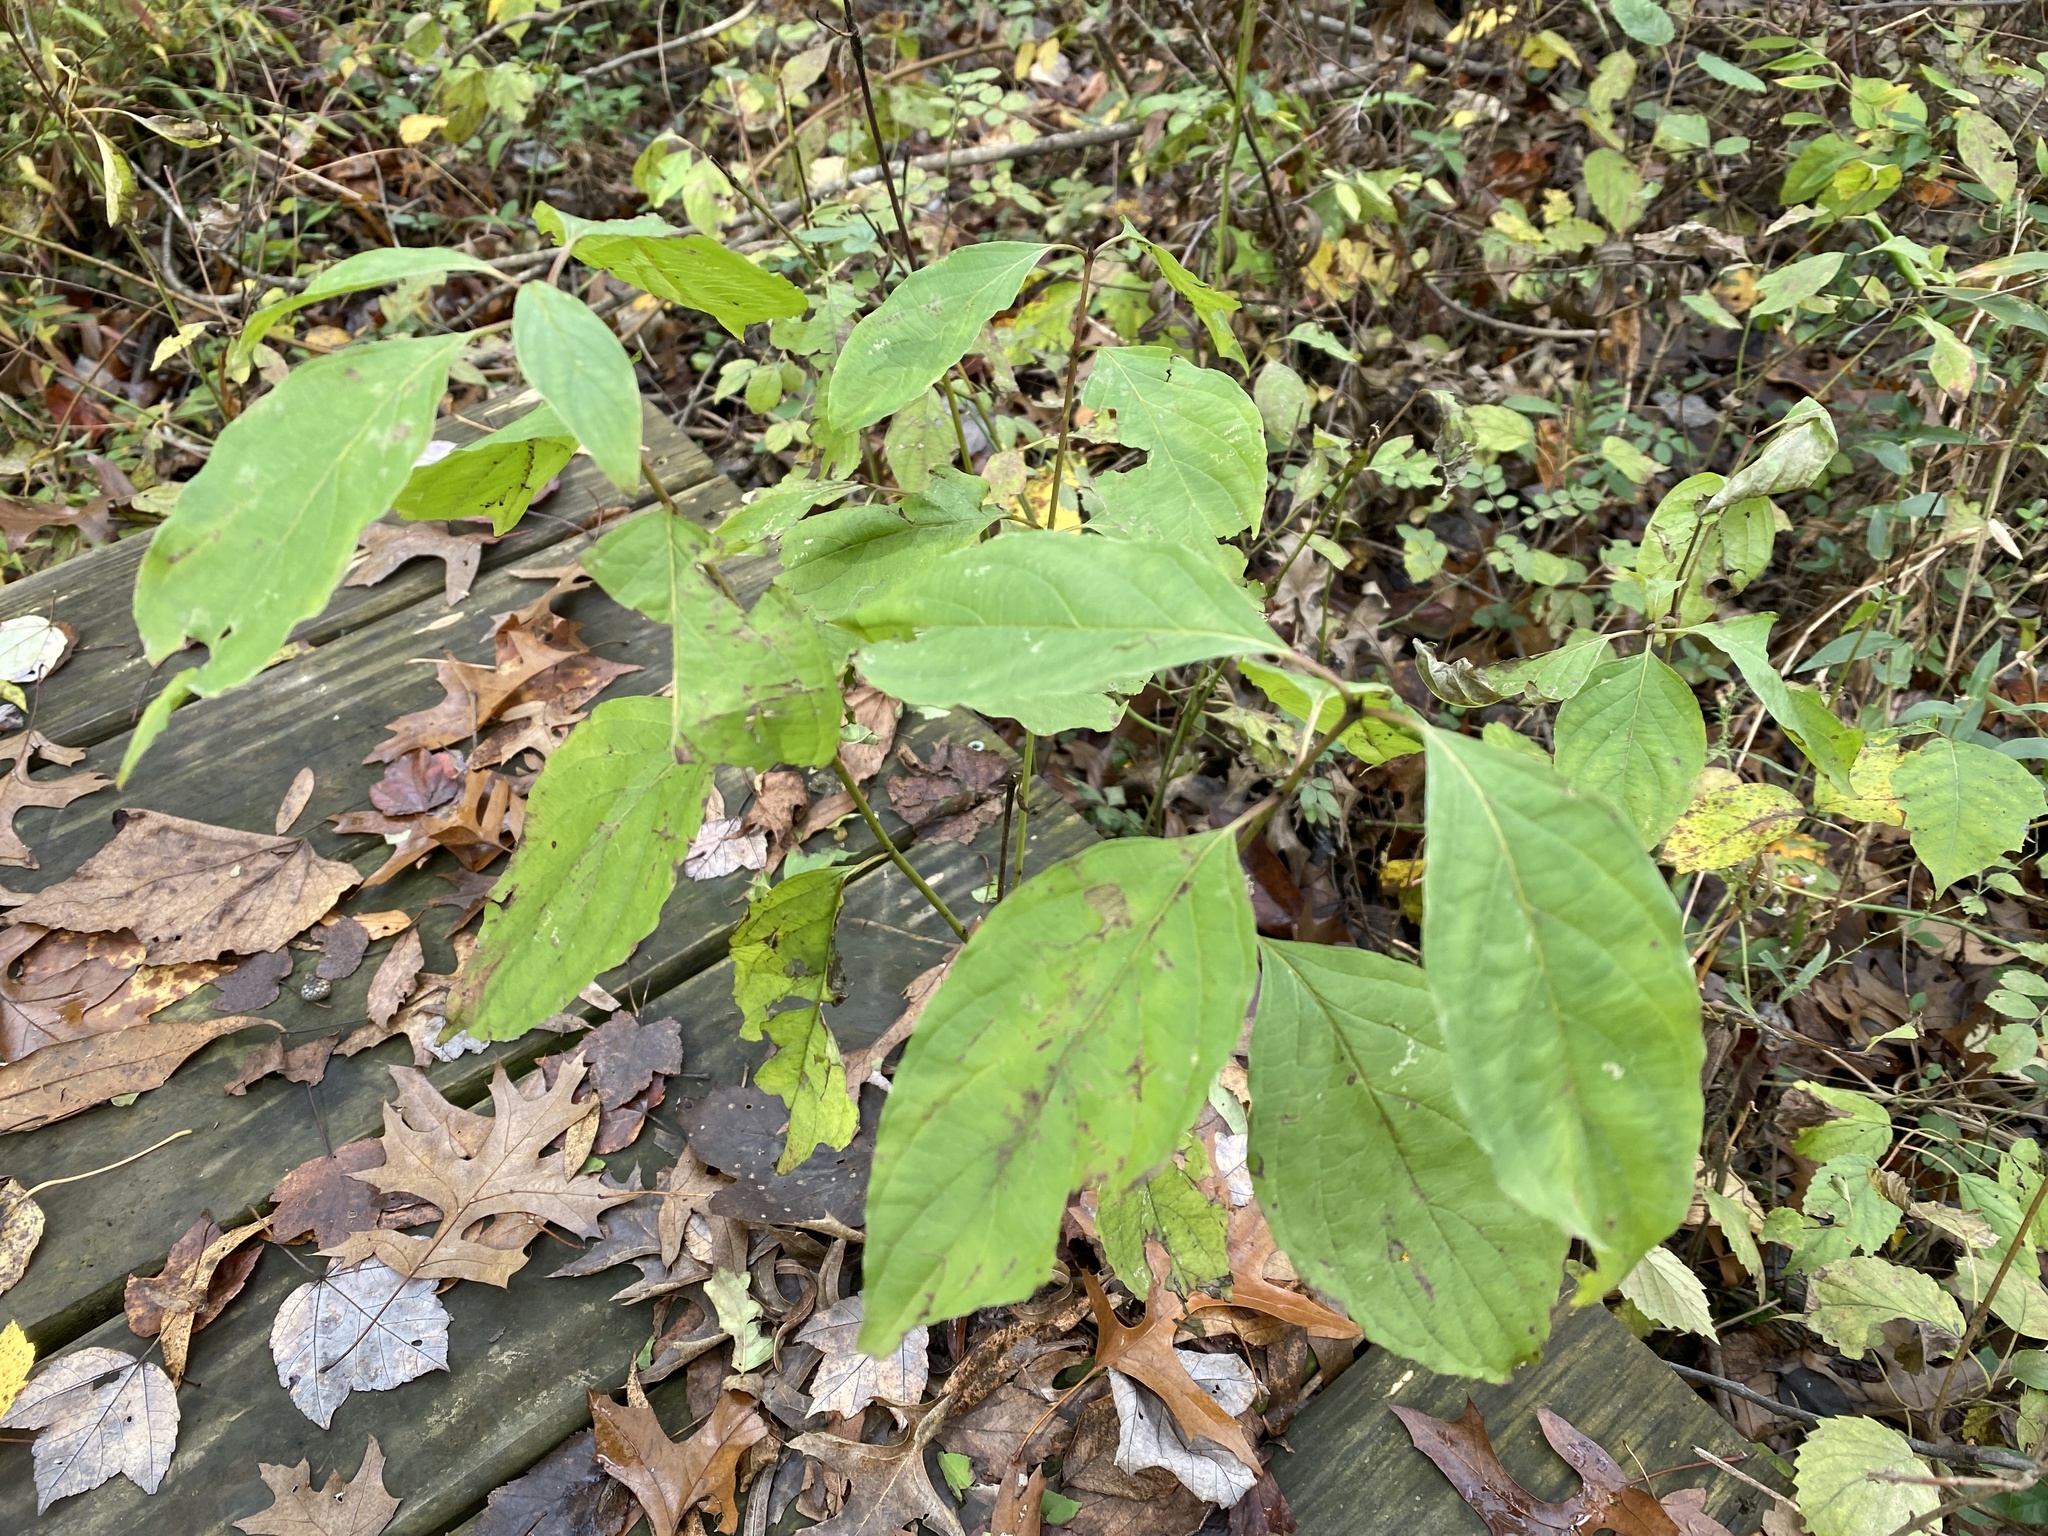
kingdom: Plantae
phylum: Tracheophyta
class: Magnoliopsida
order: Asterales
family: Asteraceae
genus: Helianthus
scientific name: Helianthus tuberosus
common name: Jerusalem artichoke
